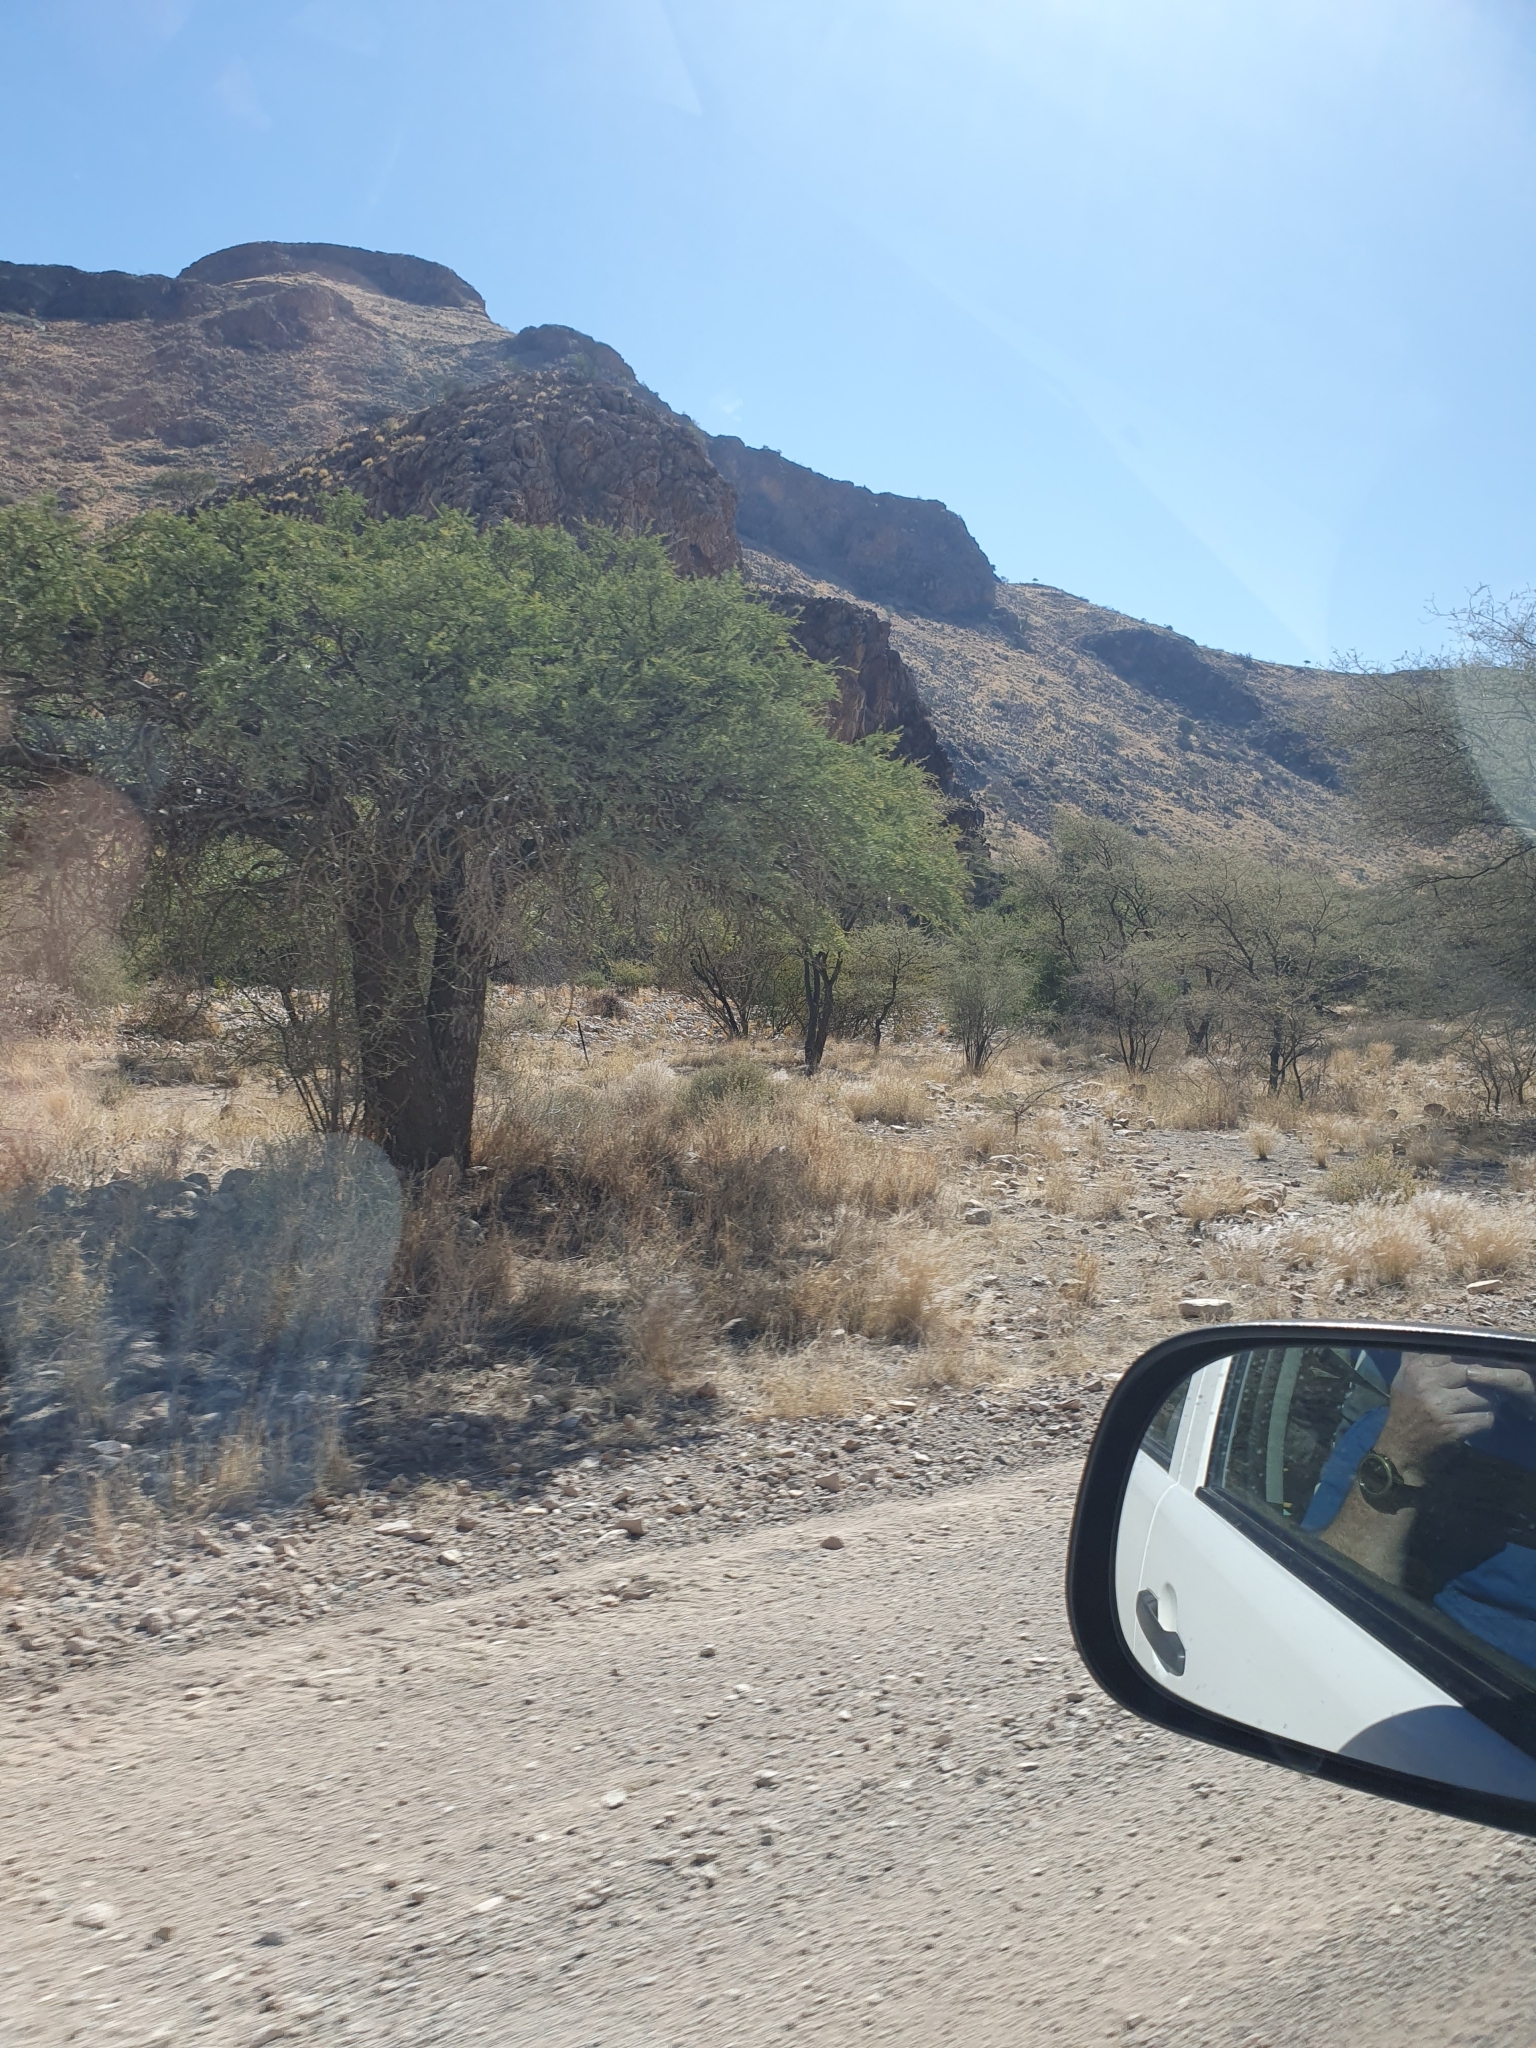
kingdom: Plantae
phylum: Tracheophyta
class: Magnoliopsida
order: Brassicales
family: Capparaceae
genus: Boscia
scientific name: Boscia albitrunca
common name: Caper bush
